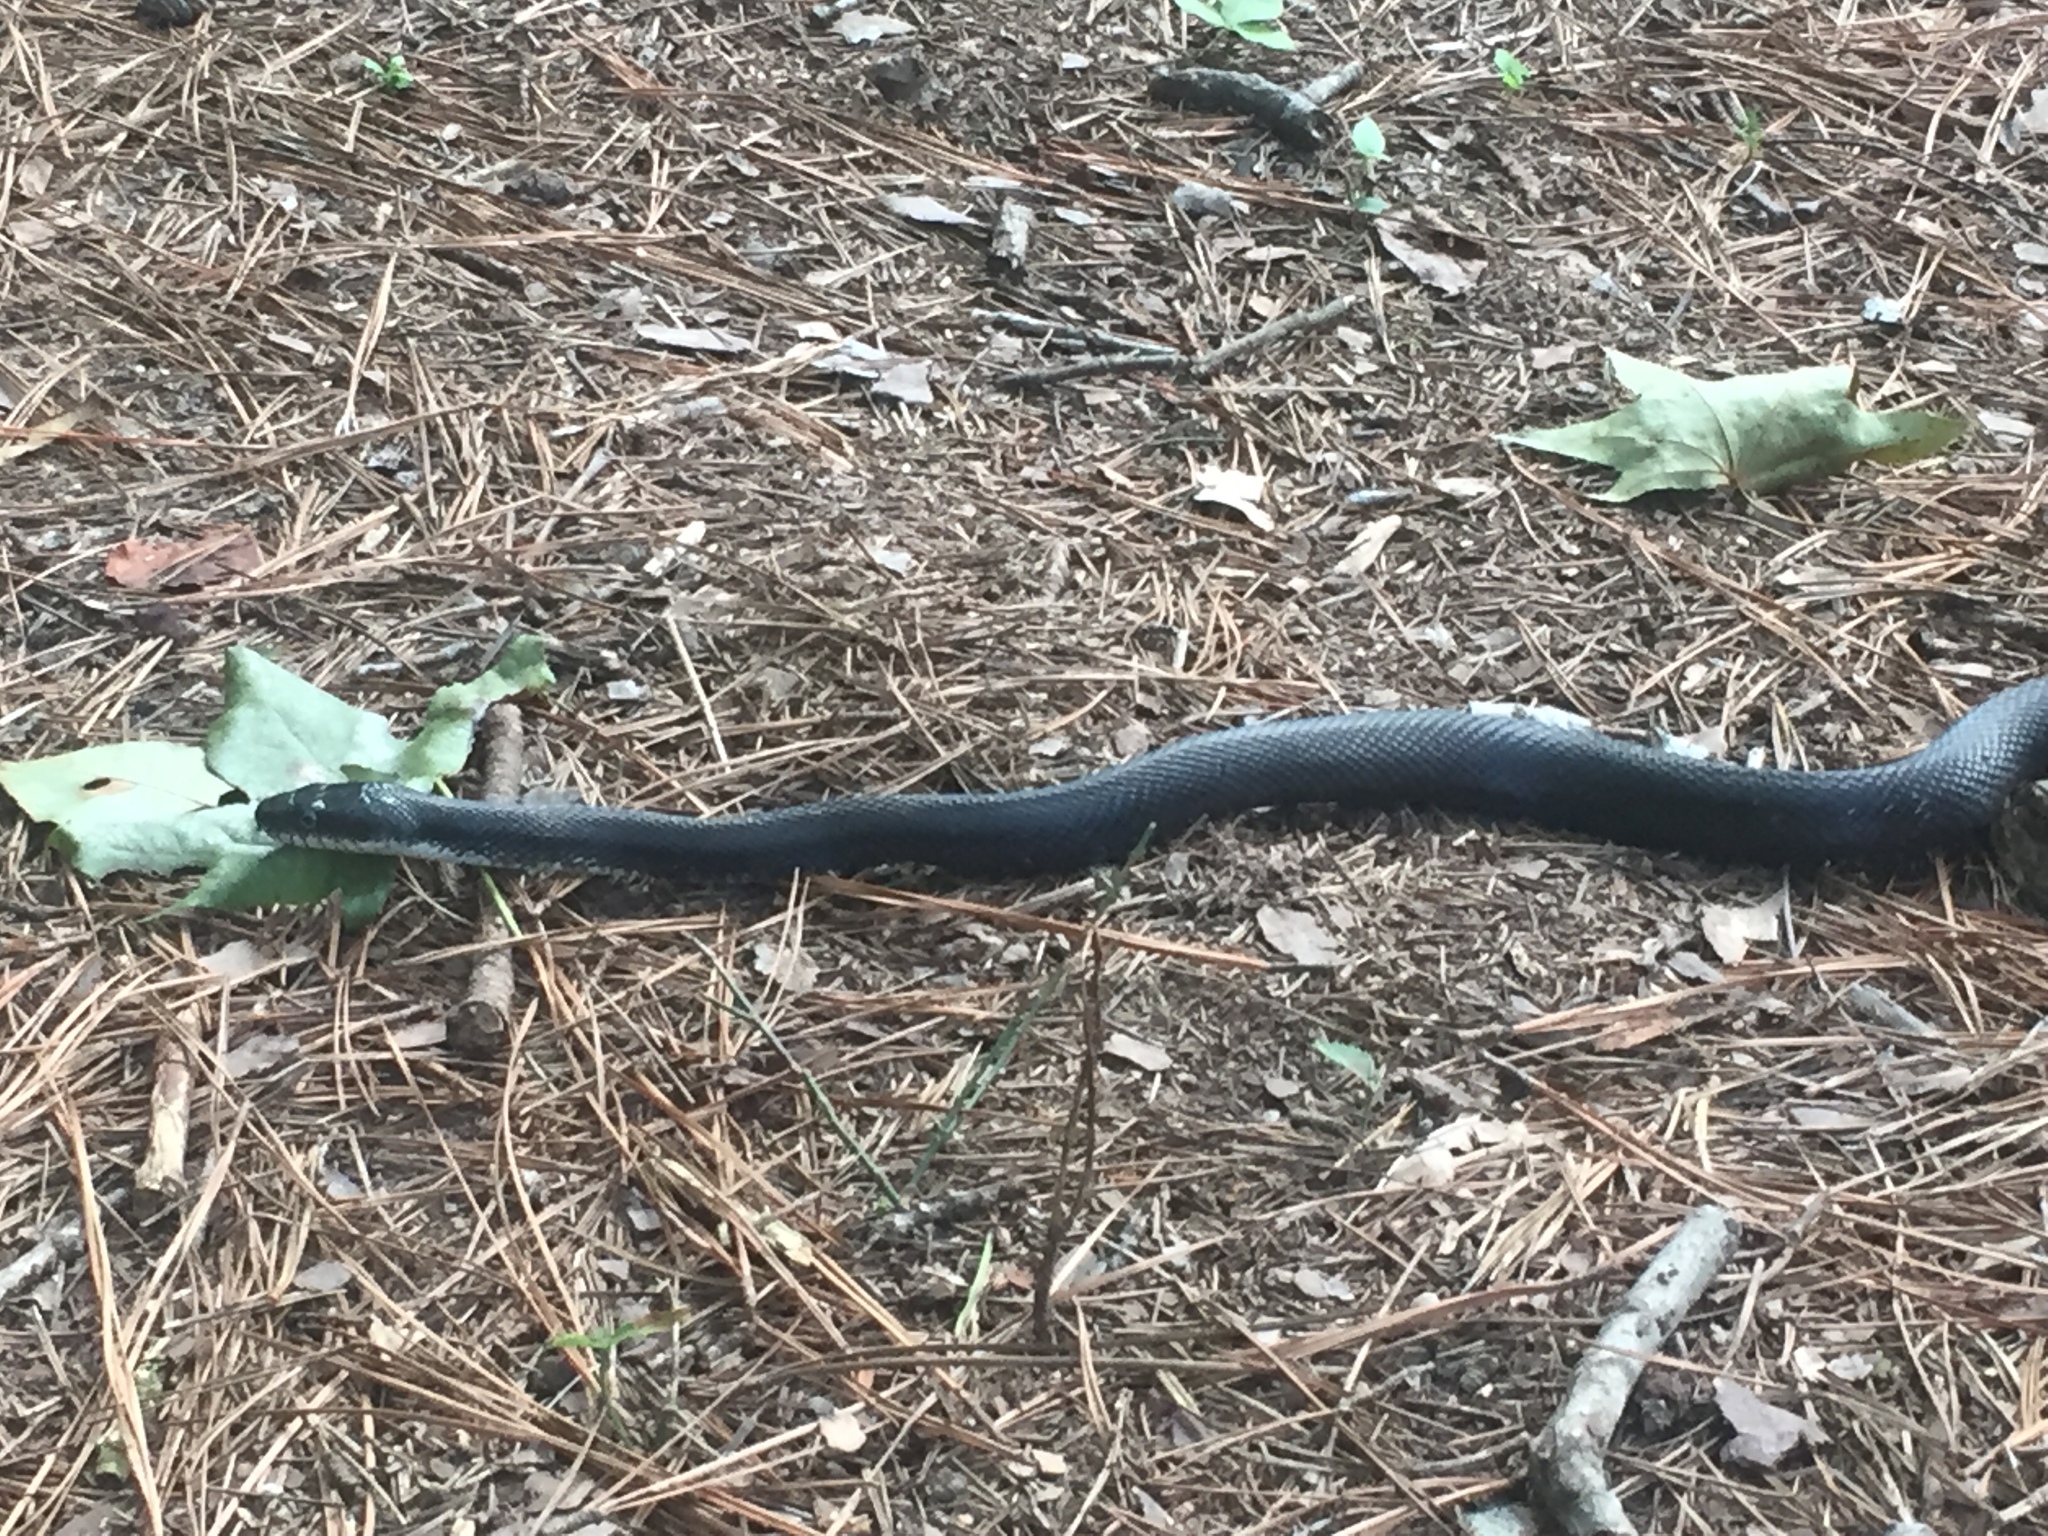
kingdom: Animalia
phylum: Chordata
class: Squamata
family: Colubridae
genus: Pantherophis
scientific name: Pantherophis alleghaniensis
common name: Eastern rat snake
